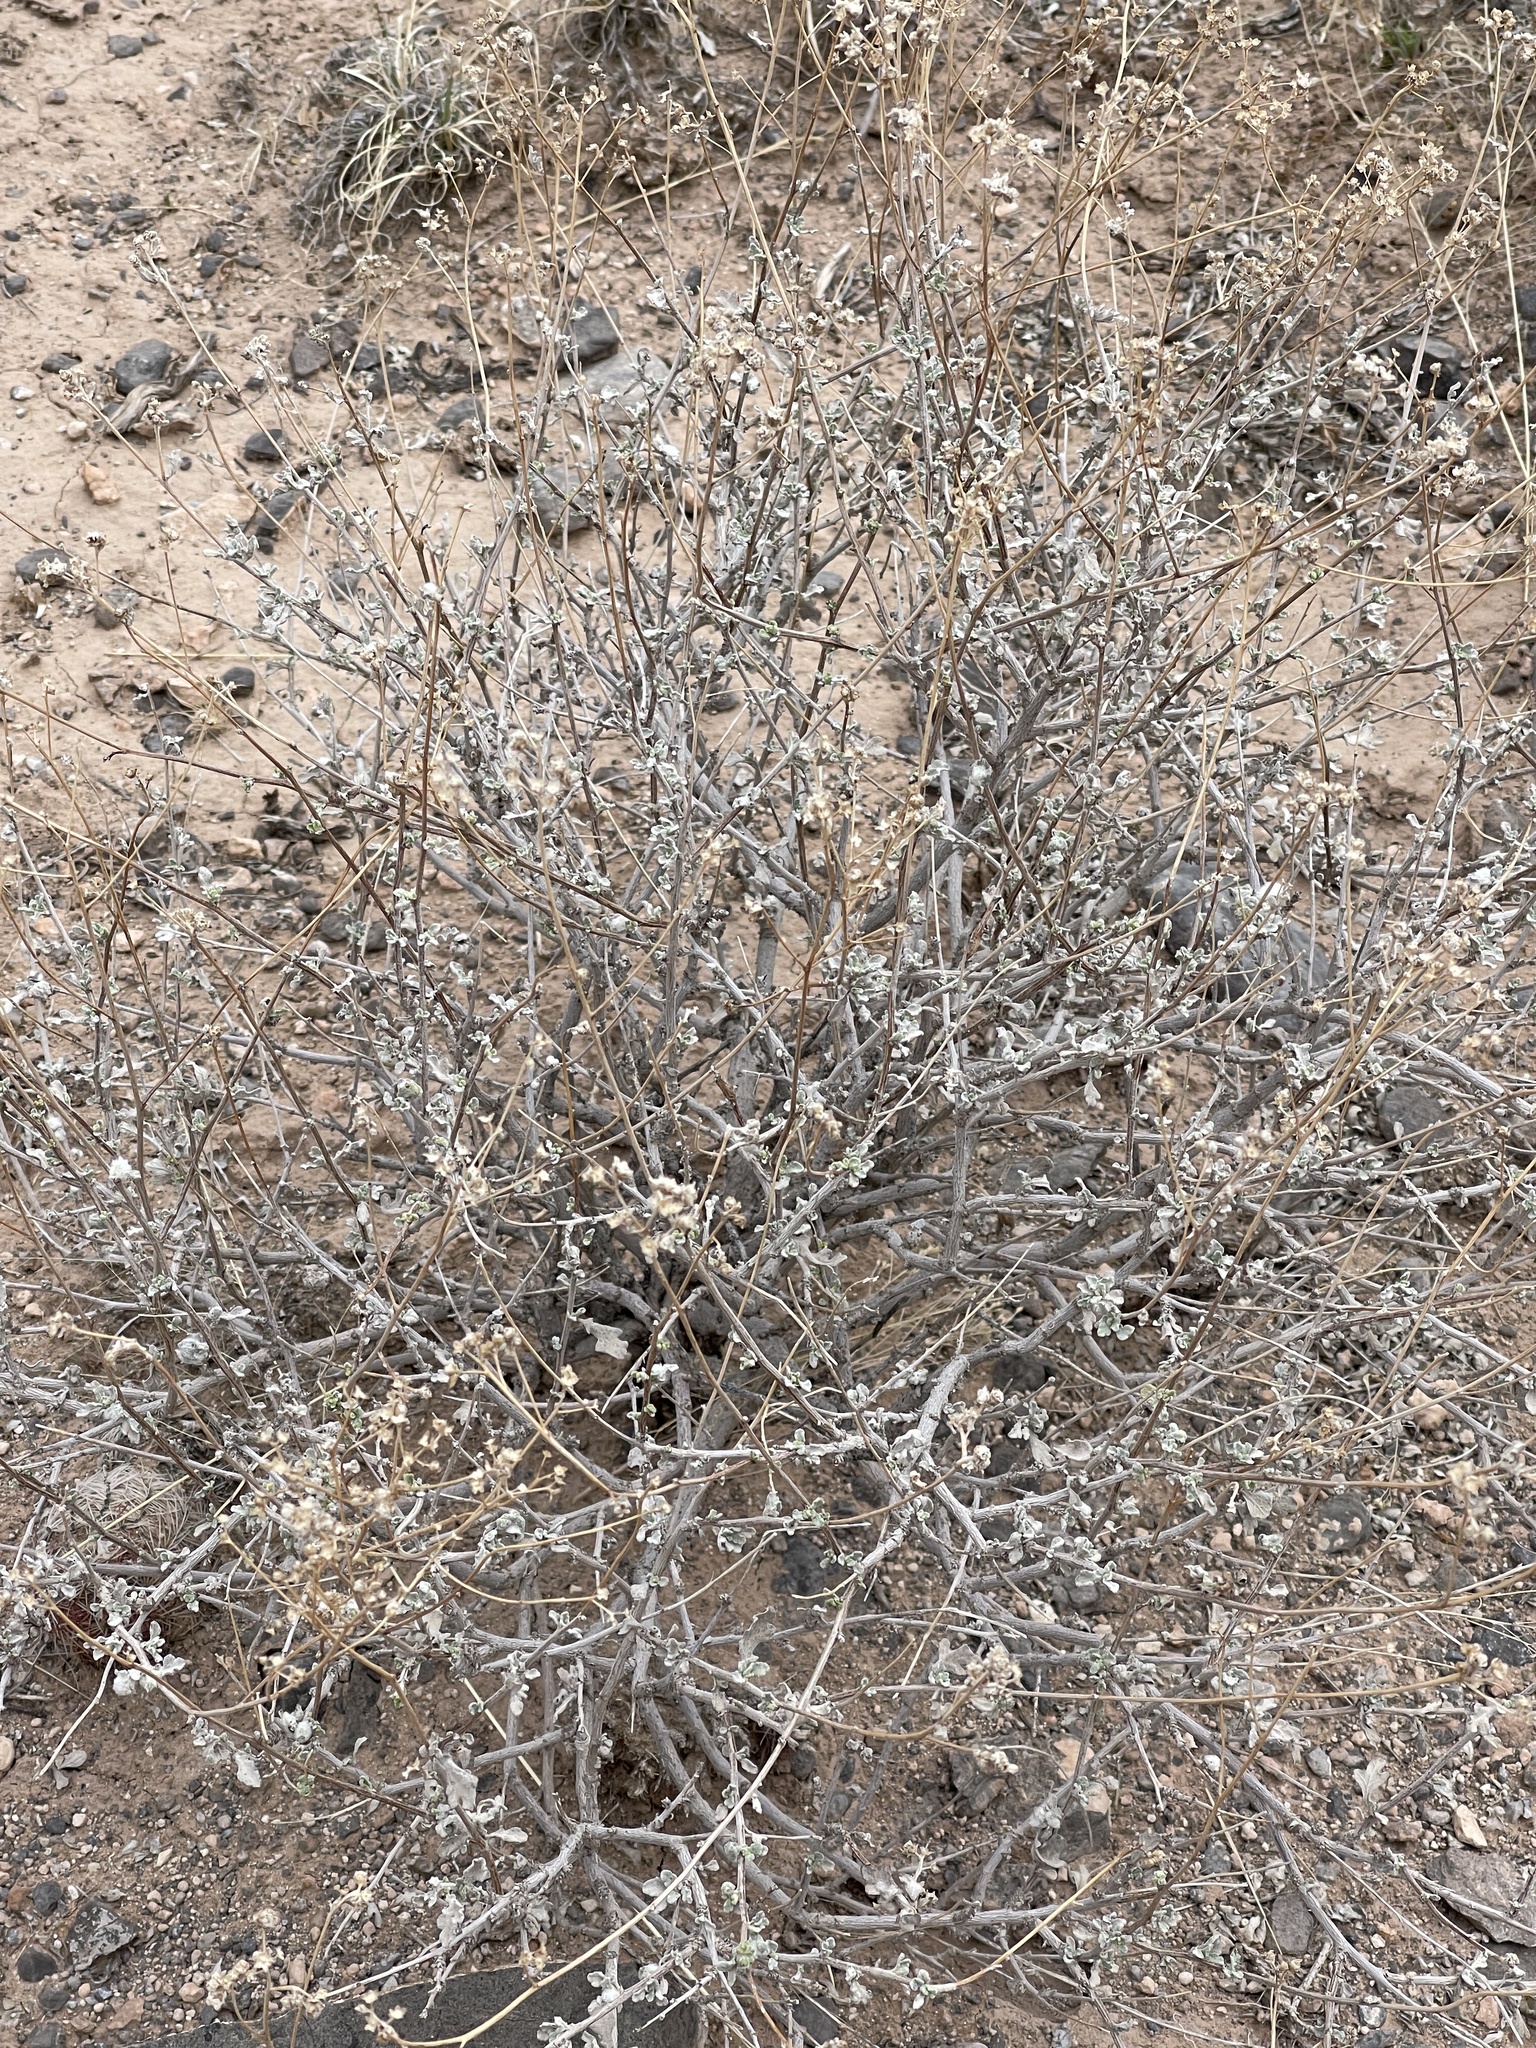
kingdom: Plantae
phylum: Tracheophyta
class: Magnoliopsida
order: Asterales
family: Asteraceae
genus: Parthenium
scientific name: Parthenium incanum
